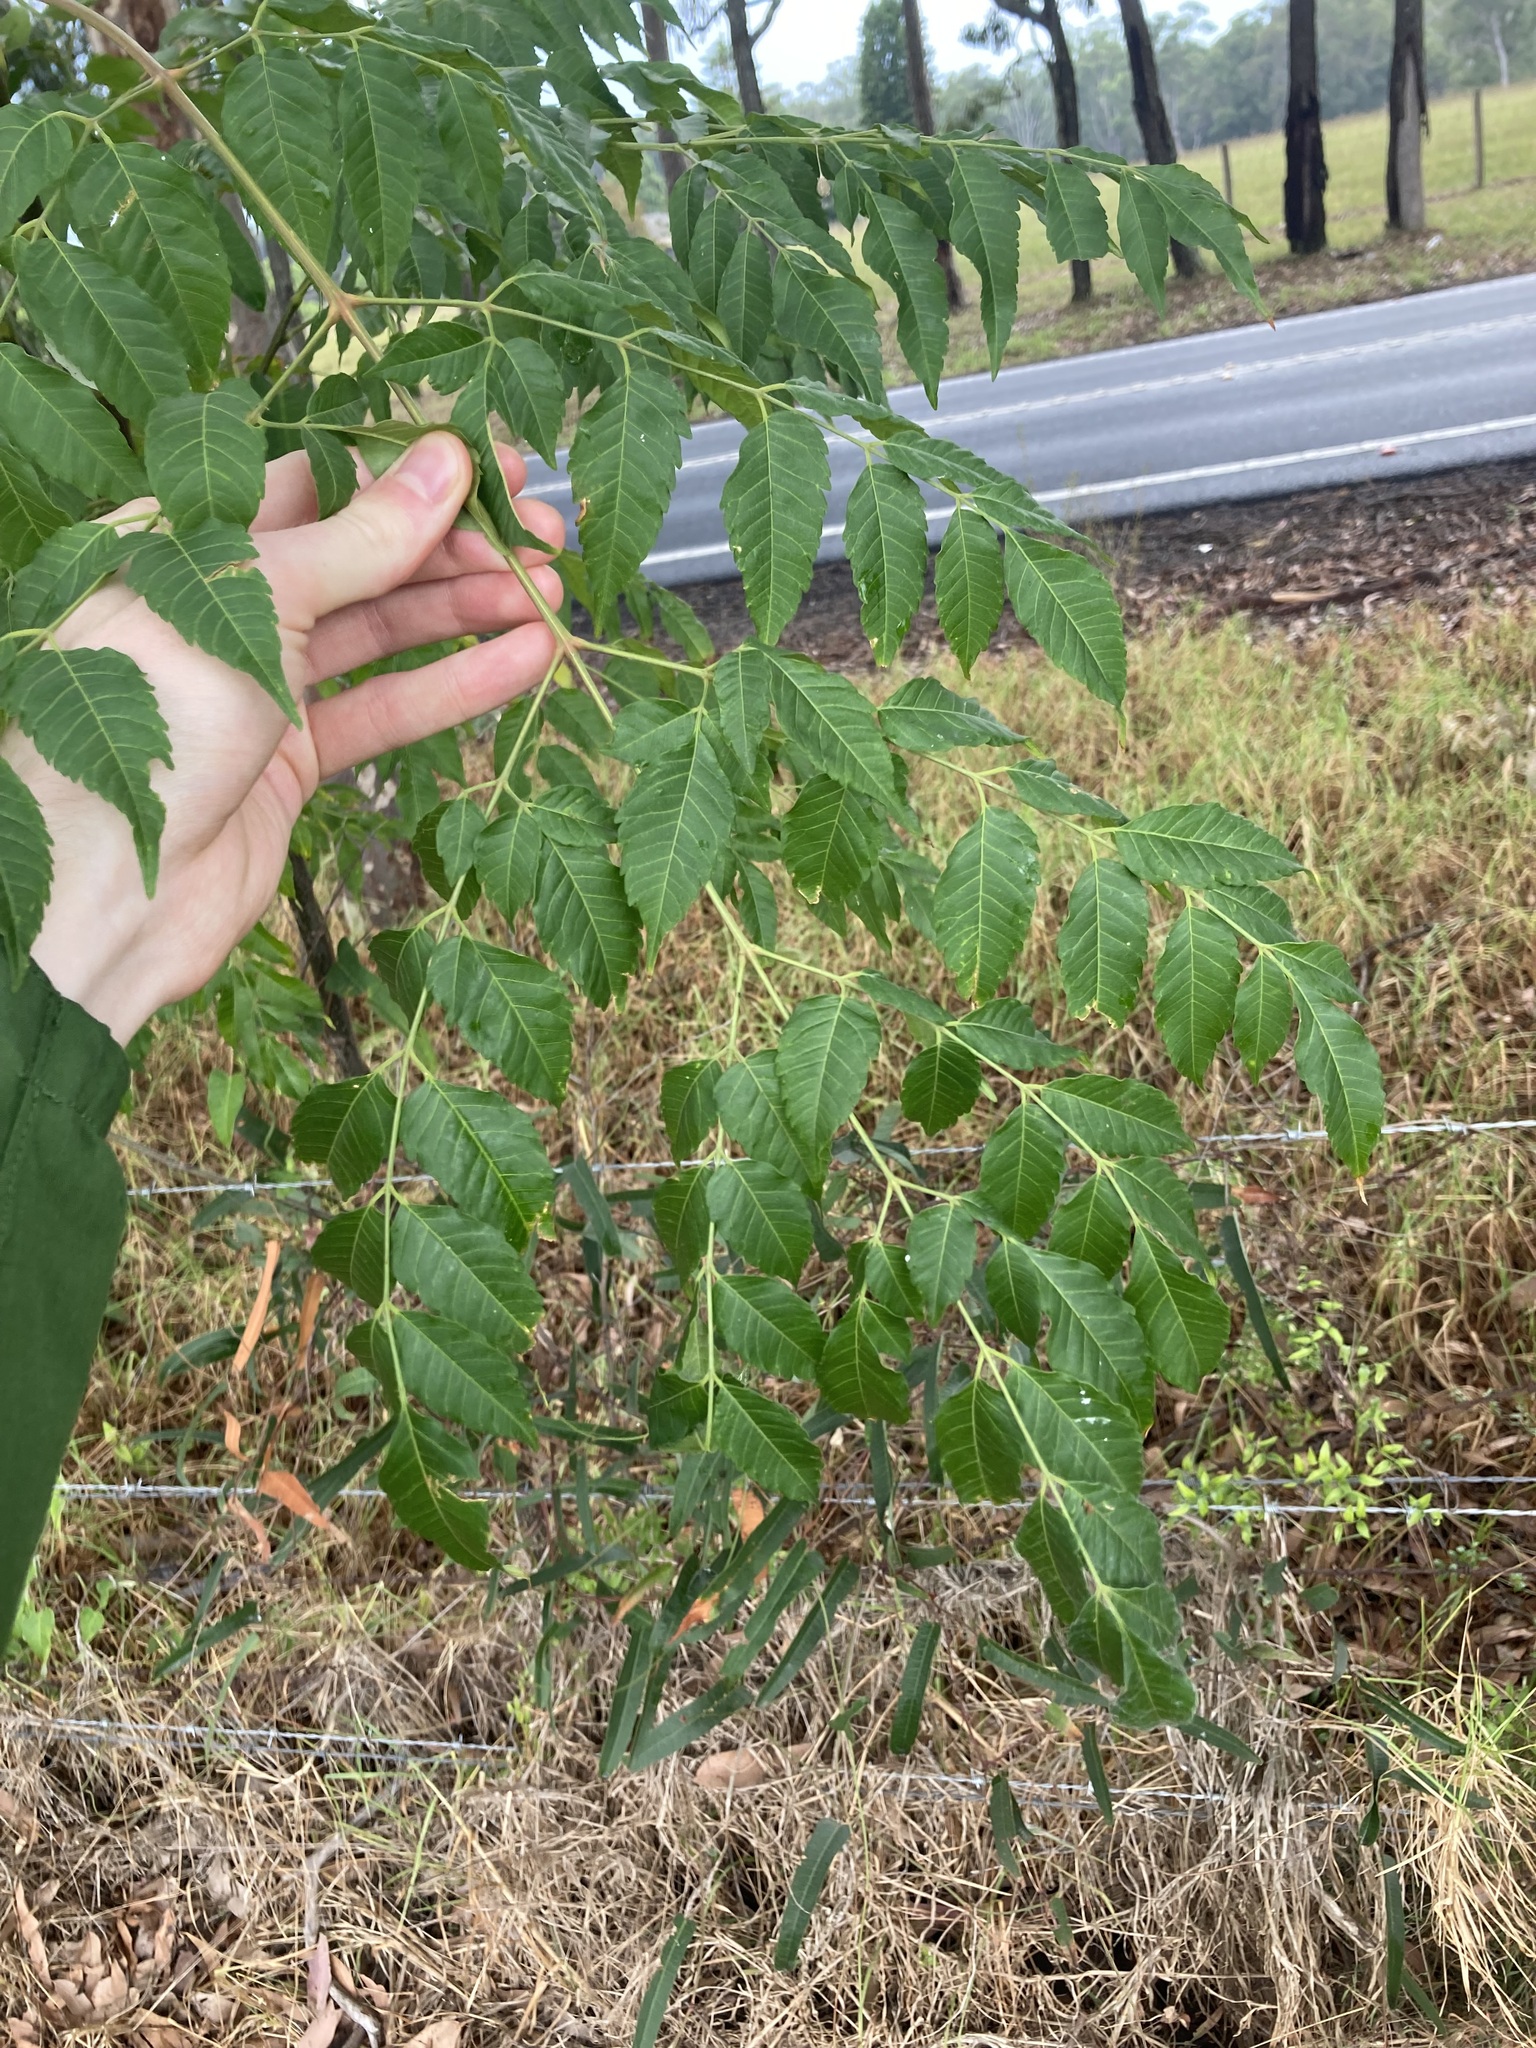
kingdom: Plantae
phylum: Tracheophyta
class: Magnoliopsida
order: Sapindales
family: Meliaceae
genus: Melia
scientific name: Melia azedarach
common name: Chinaberrytree
